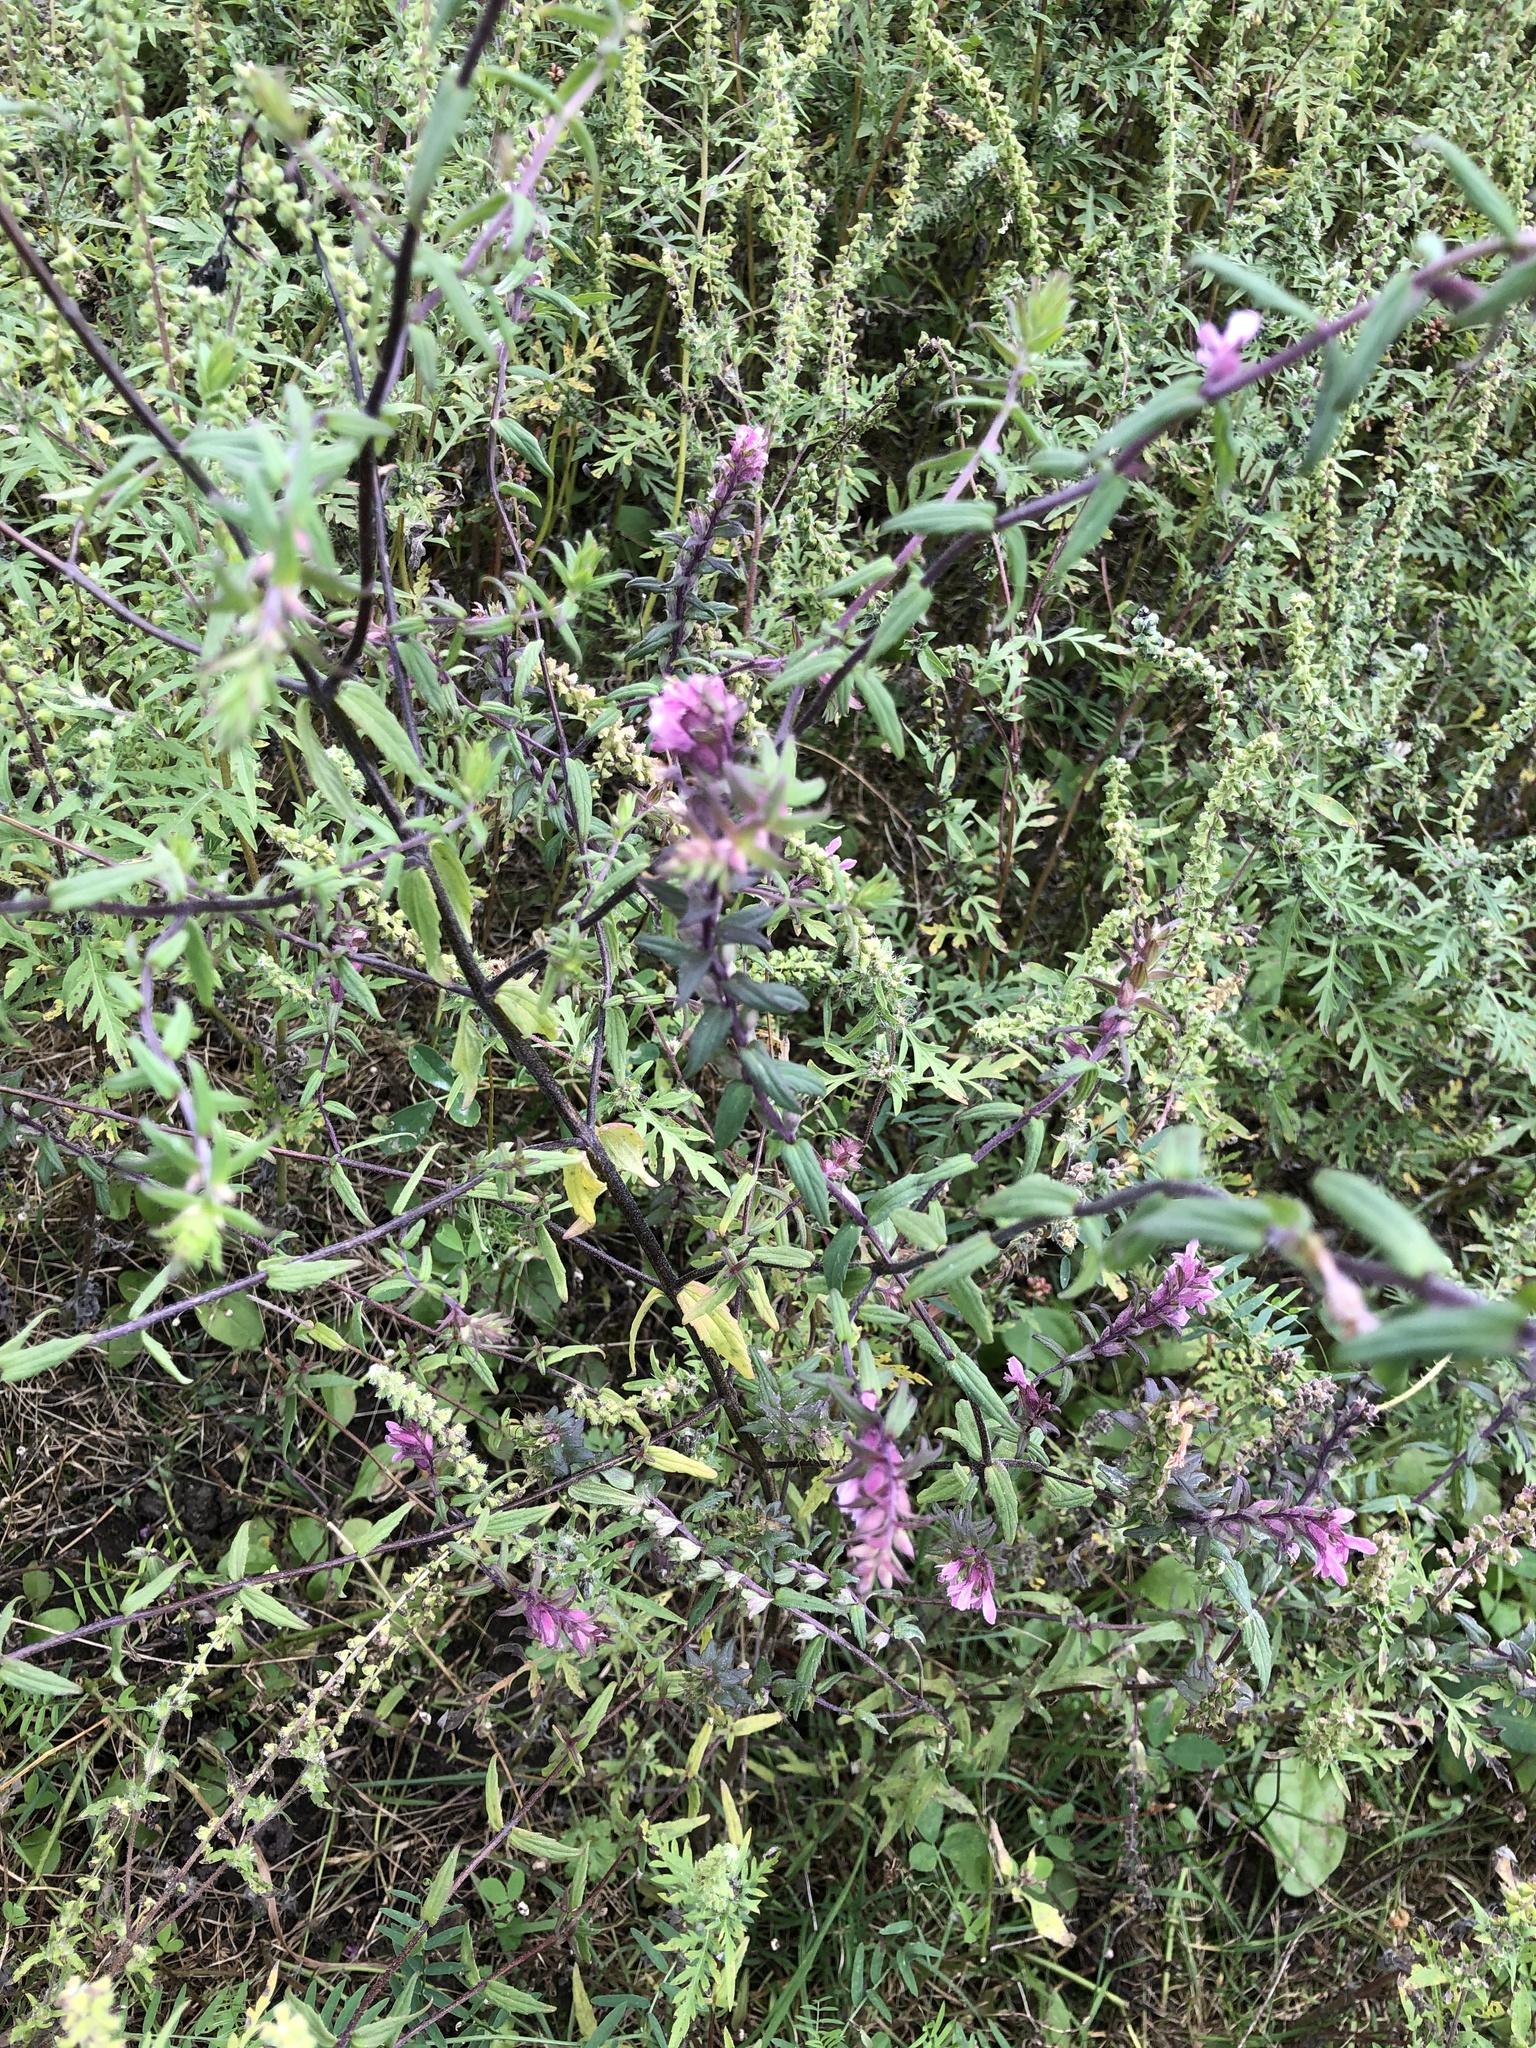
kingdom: Plantae
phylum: Tracheophyta
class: Magnoliopsida
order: Lamiales
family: Orobanchaceae
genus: Odontites
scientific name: Odontites vulgaris
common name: Broomrape
